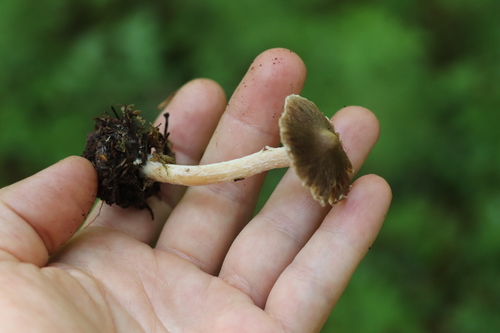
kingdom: Fungi
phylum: Basidiomycota
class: Agaricomycetes
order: Agaricales
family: Inocybaceae
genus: Inocybe
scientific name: Inocybe flocculosa
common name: Fleecy fibrecap
